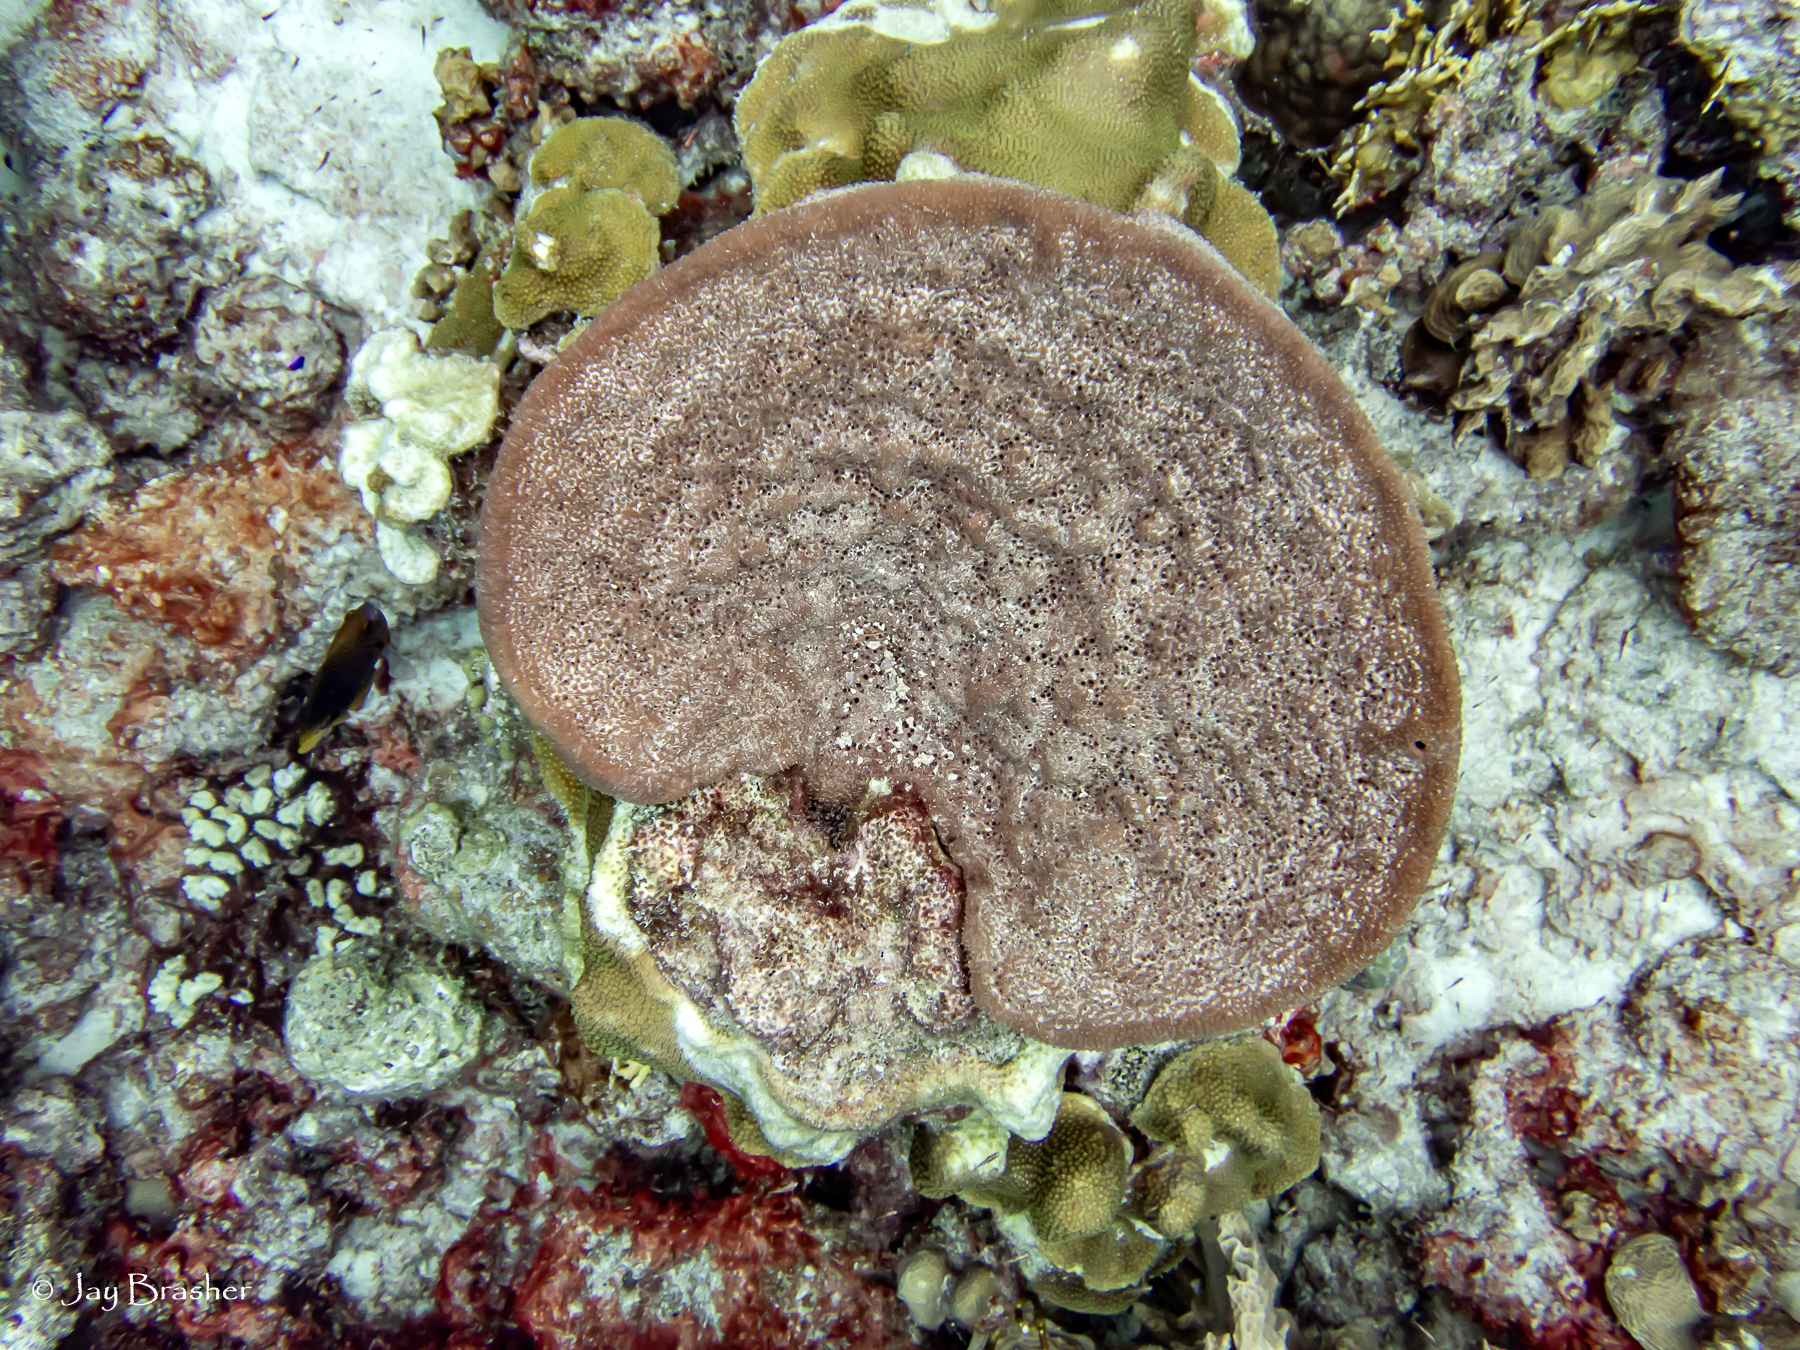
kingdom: Animalia
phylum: Porifera
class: Demospongiae
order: Dictyoceratida
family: Irciniidae
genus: Ircinia
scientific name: Ircinia campana
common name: Vase sponge
